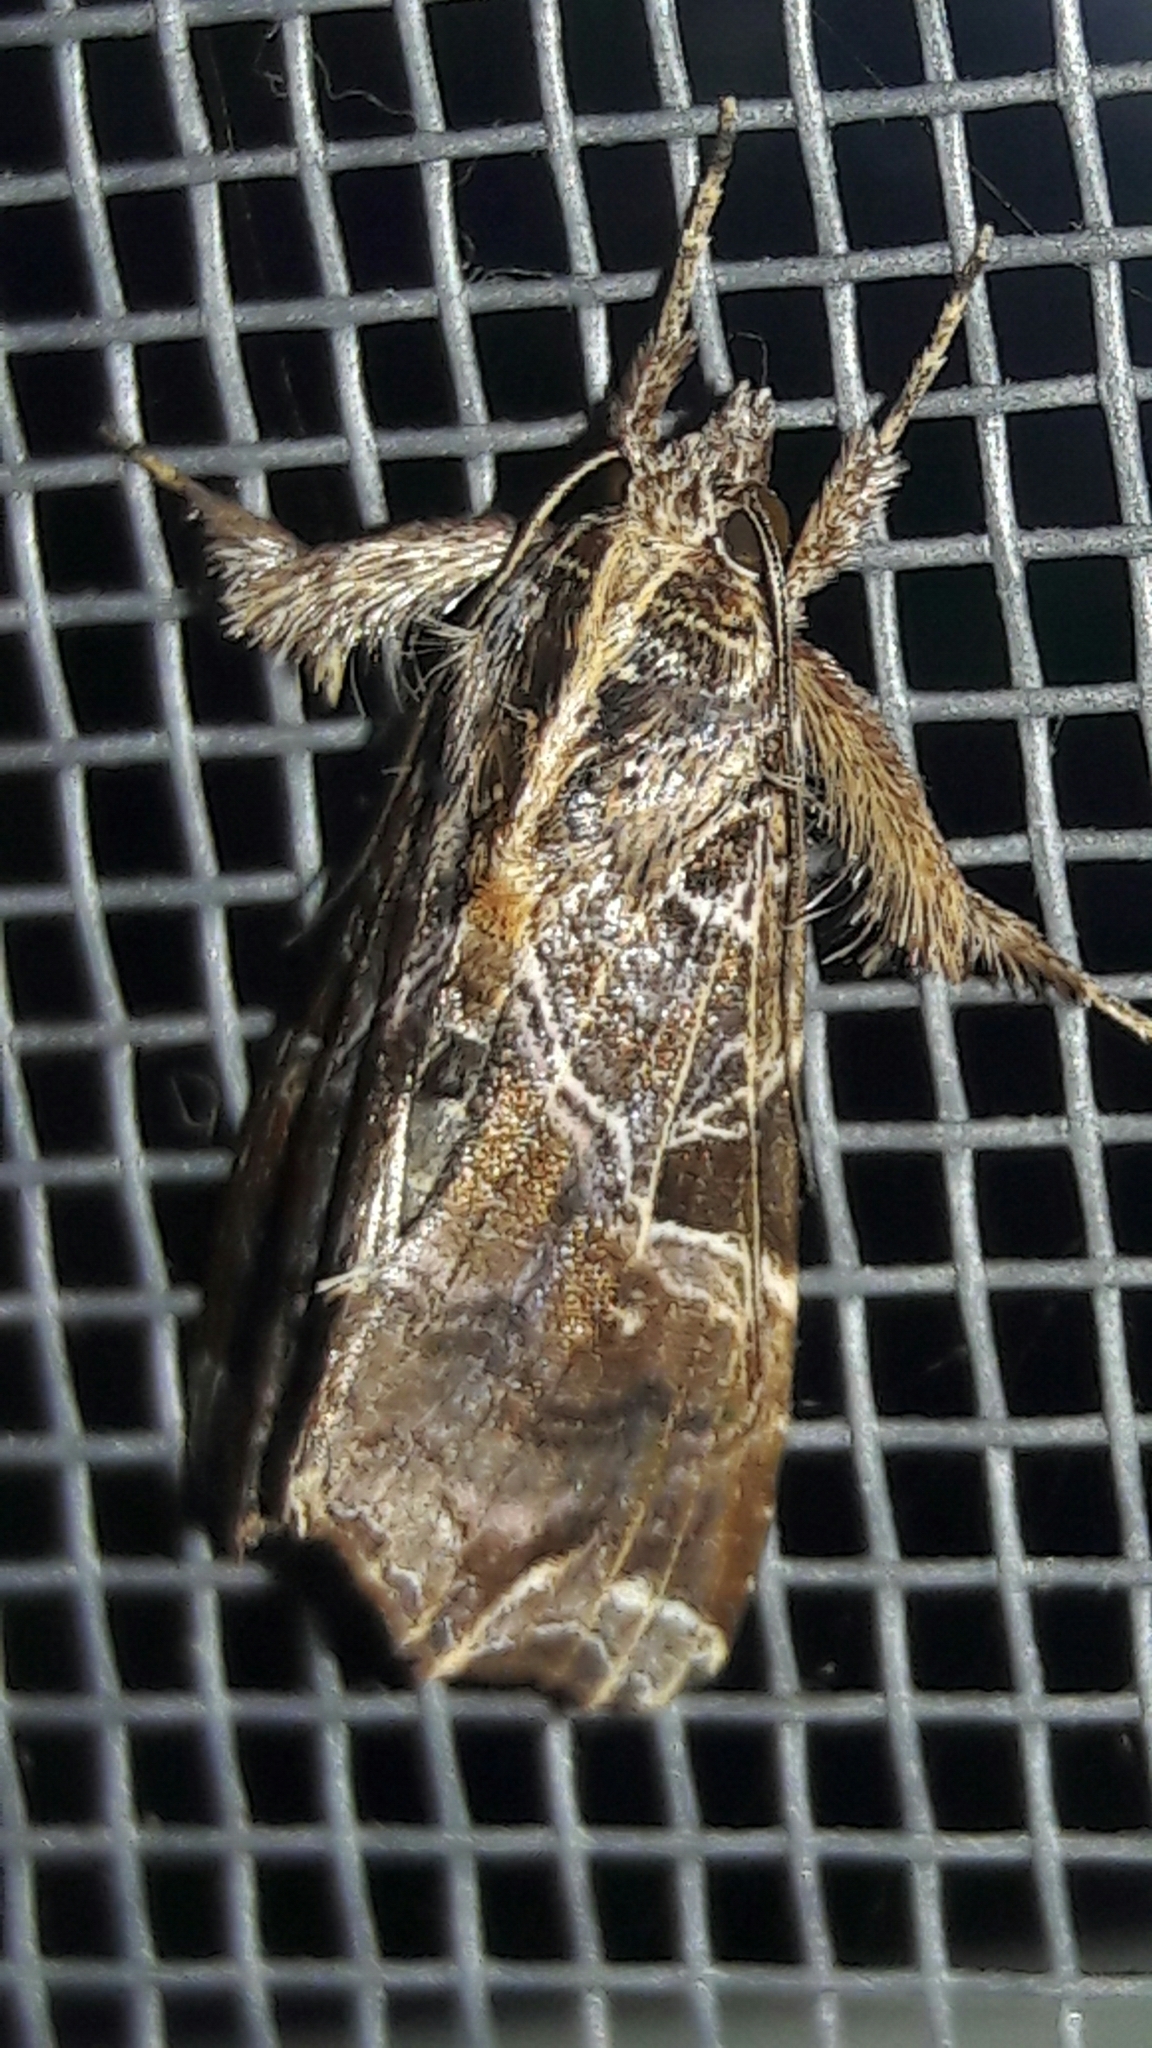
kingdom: Animalia
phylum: Arthropoda
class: Insecta
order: Lepidoptera
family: Noctuidae
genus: Callopistria
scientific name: Callopistria floridensis
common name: Florida fern moth
